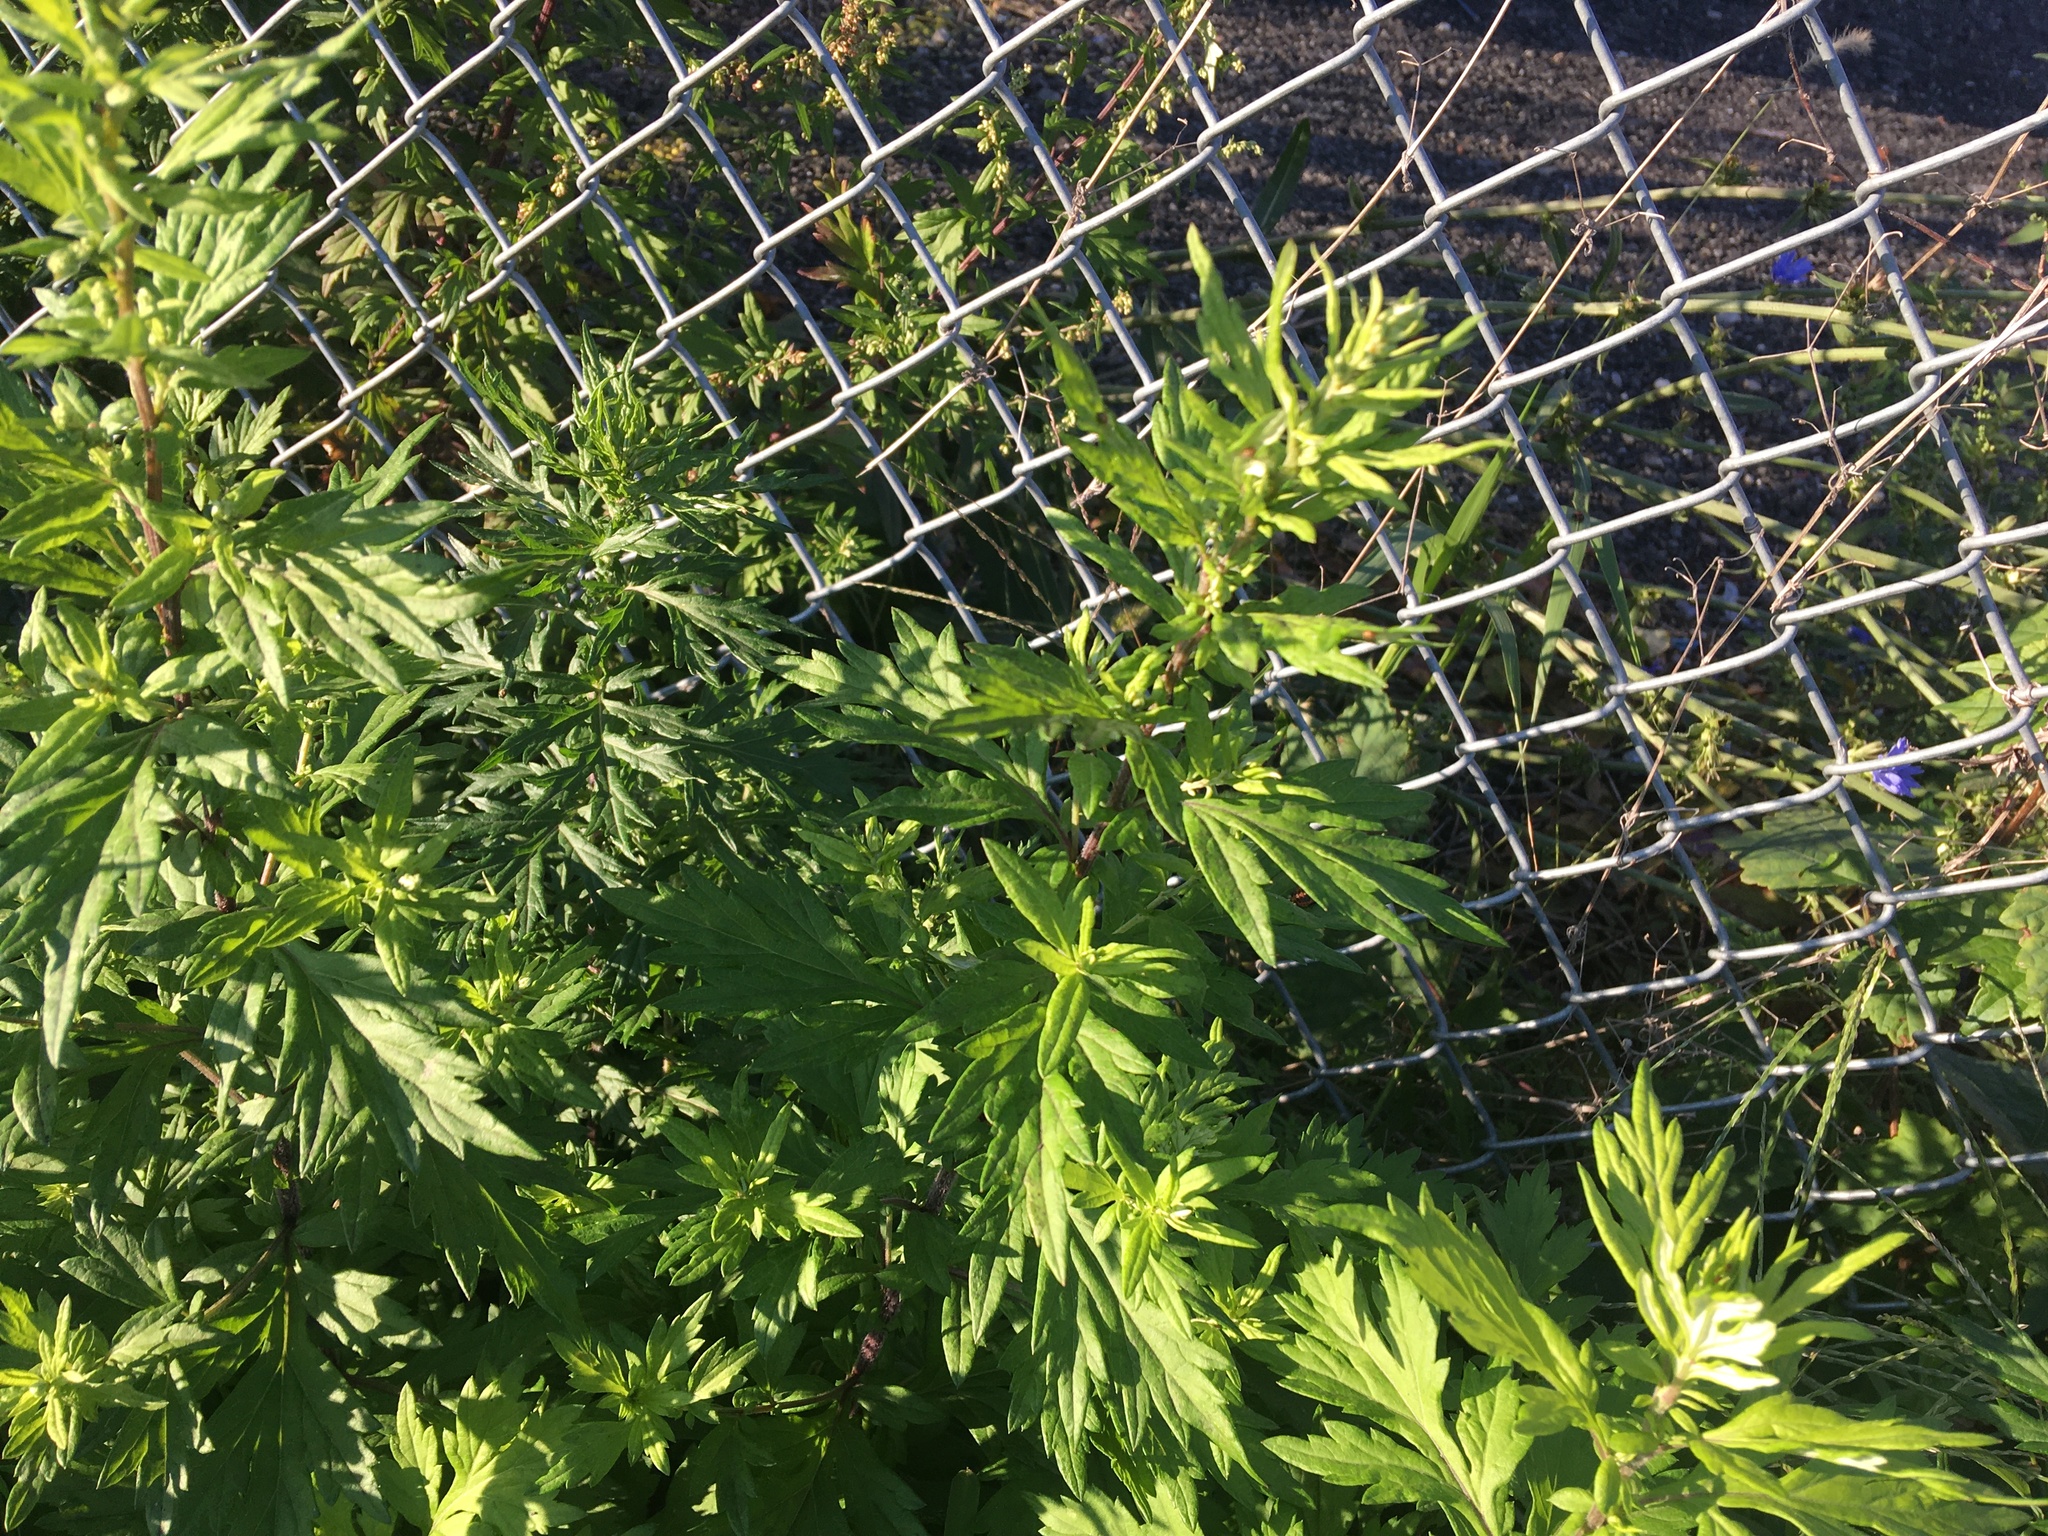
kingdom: Plantae
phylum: Tracheophyta
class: Magnoliopsida
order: Asterales
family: Asteraceae
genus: Artemisia
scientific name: Artemisia vulgaris
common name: Mugwort
